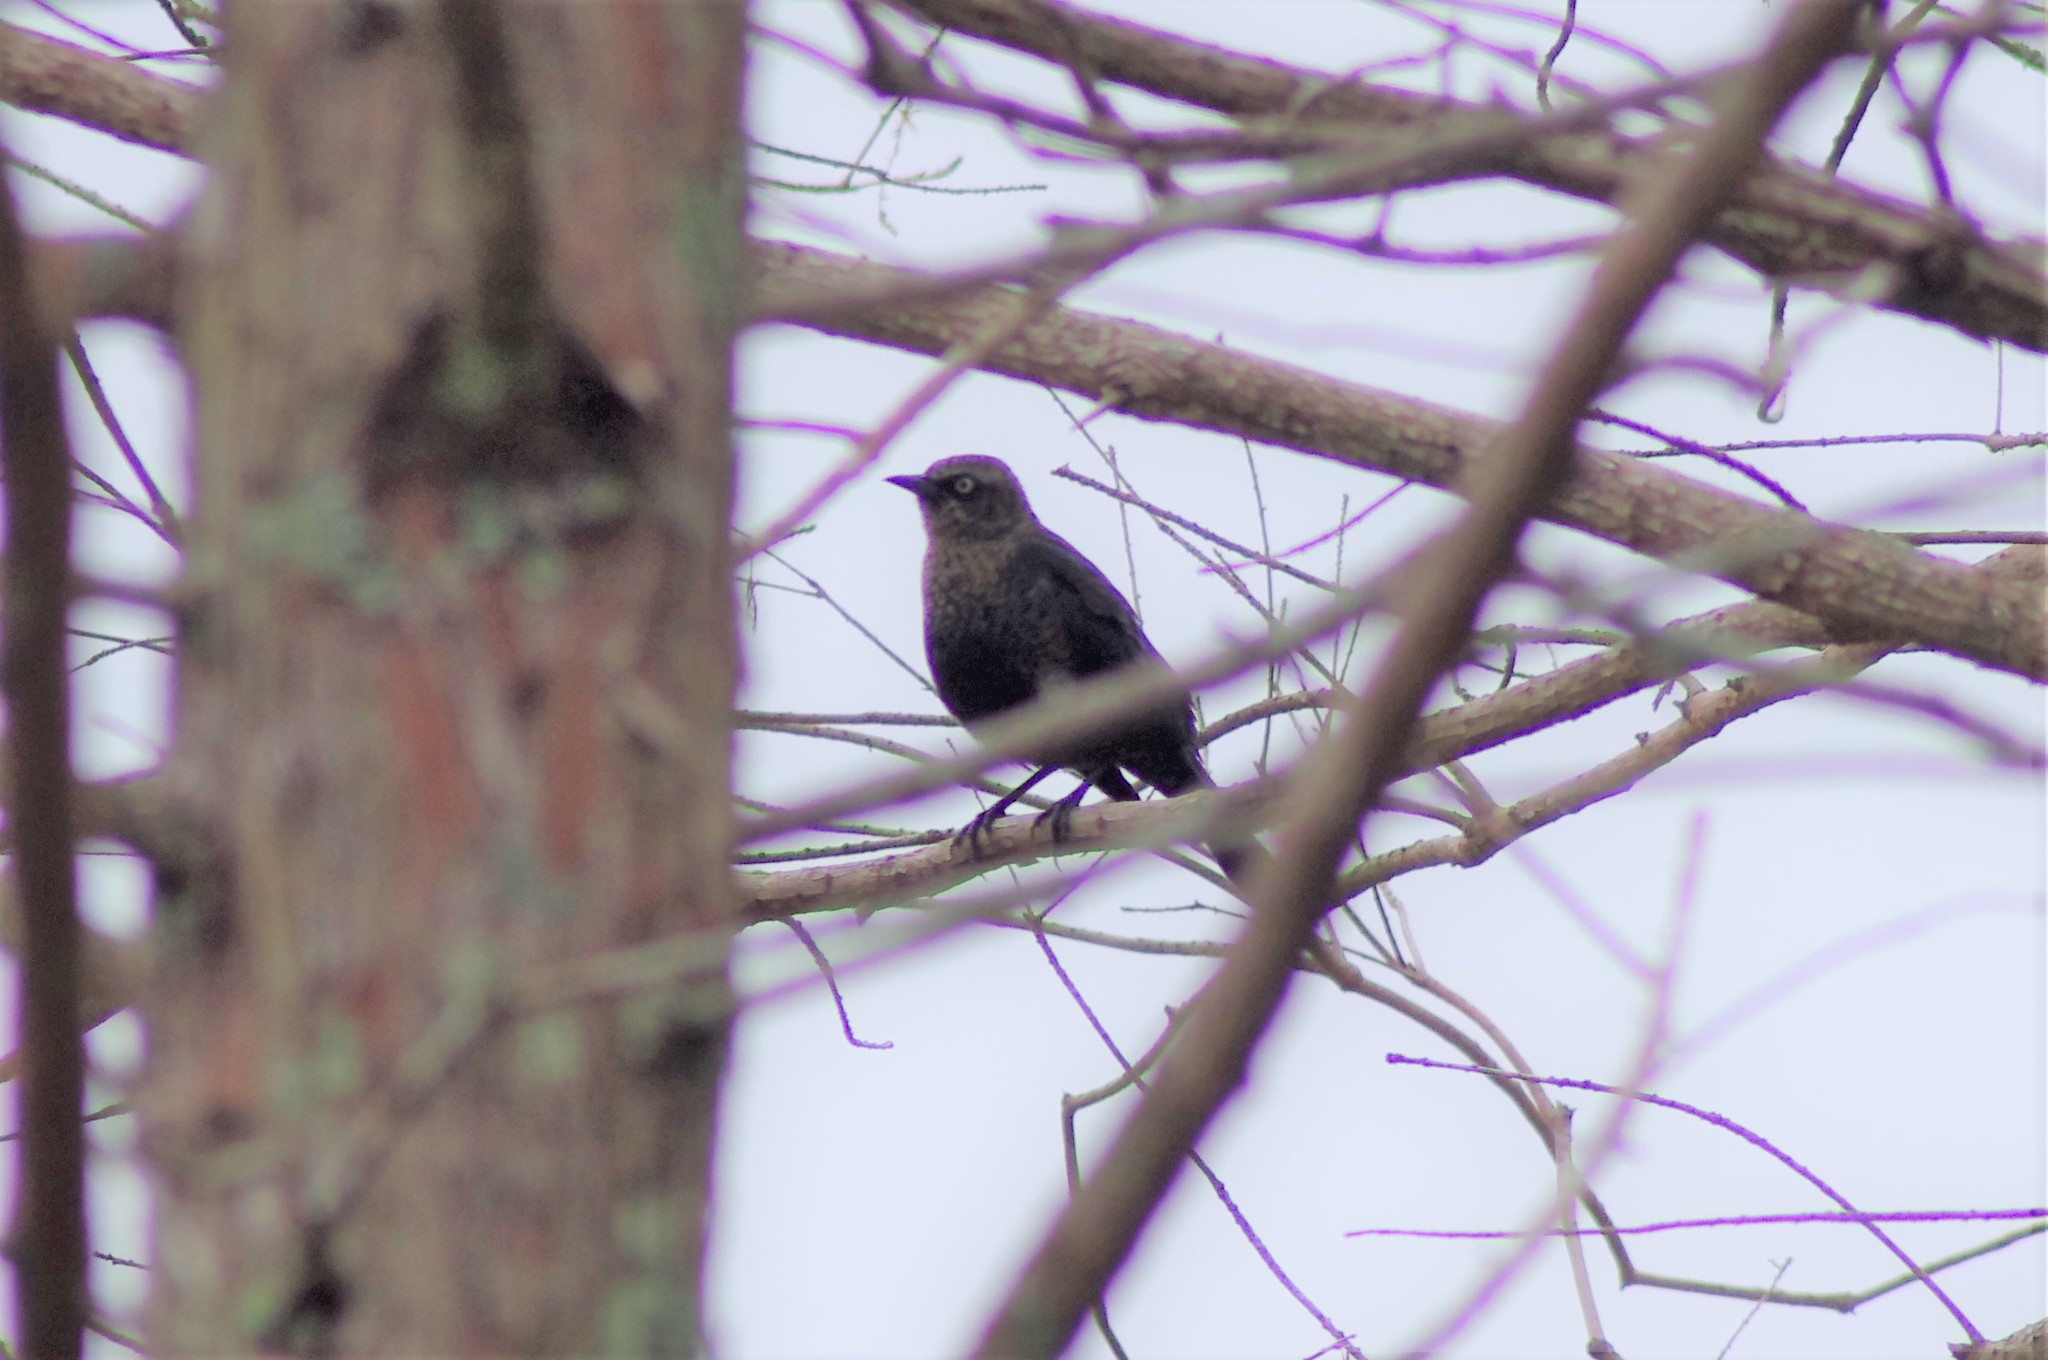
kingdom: Animalia
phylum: Chordata
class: Aves
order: Passeriformes
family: Icteridae
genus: Euphagus
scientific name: Euphagus carolinus
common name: Rusty blackbird
